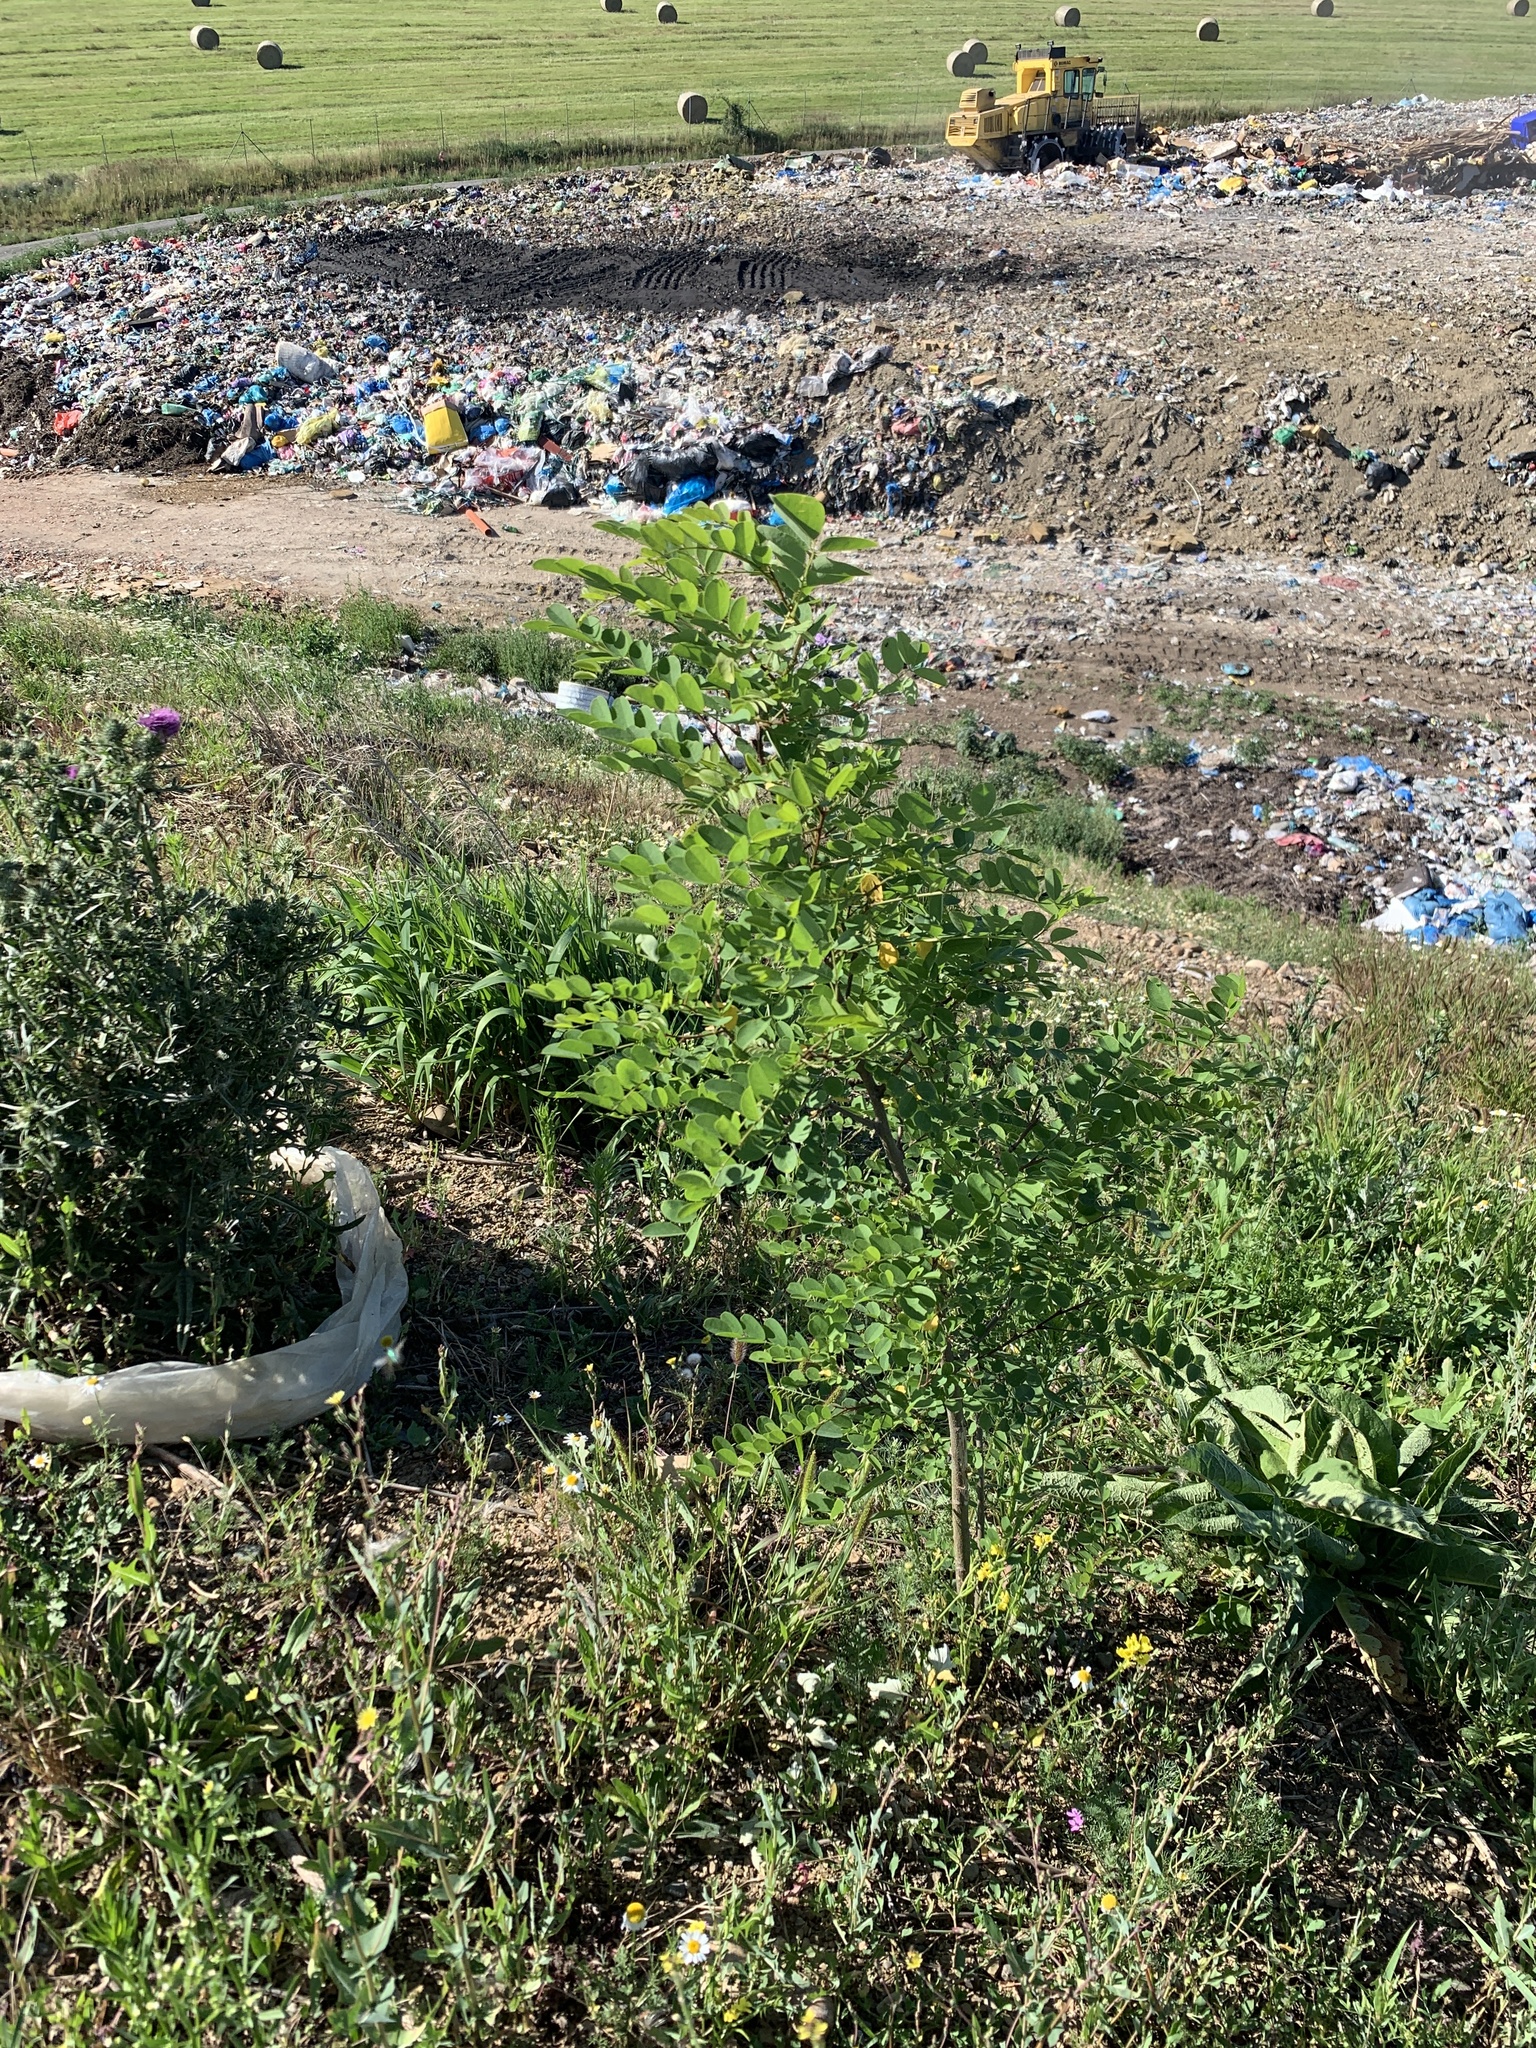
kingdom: Plantae
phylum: Tracheophyta
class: Magnoliopsida
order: Fabales
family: Fabaceae
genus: Robinia
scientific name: Robinia pseudoacacia
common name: Black locust
